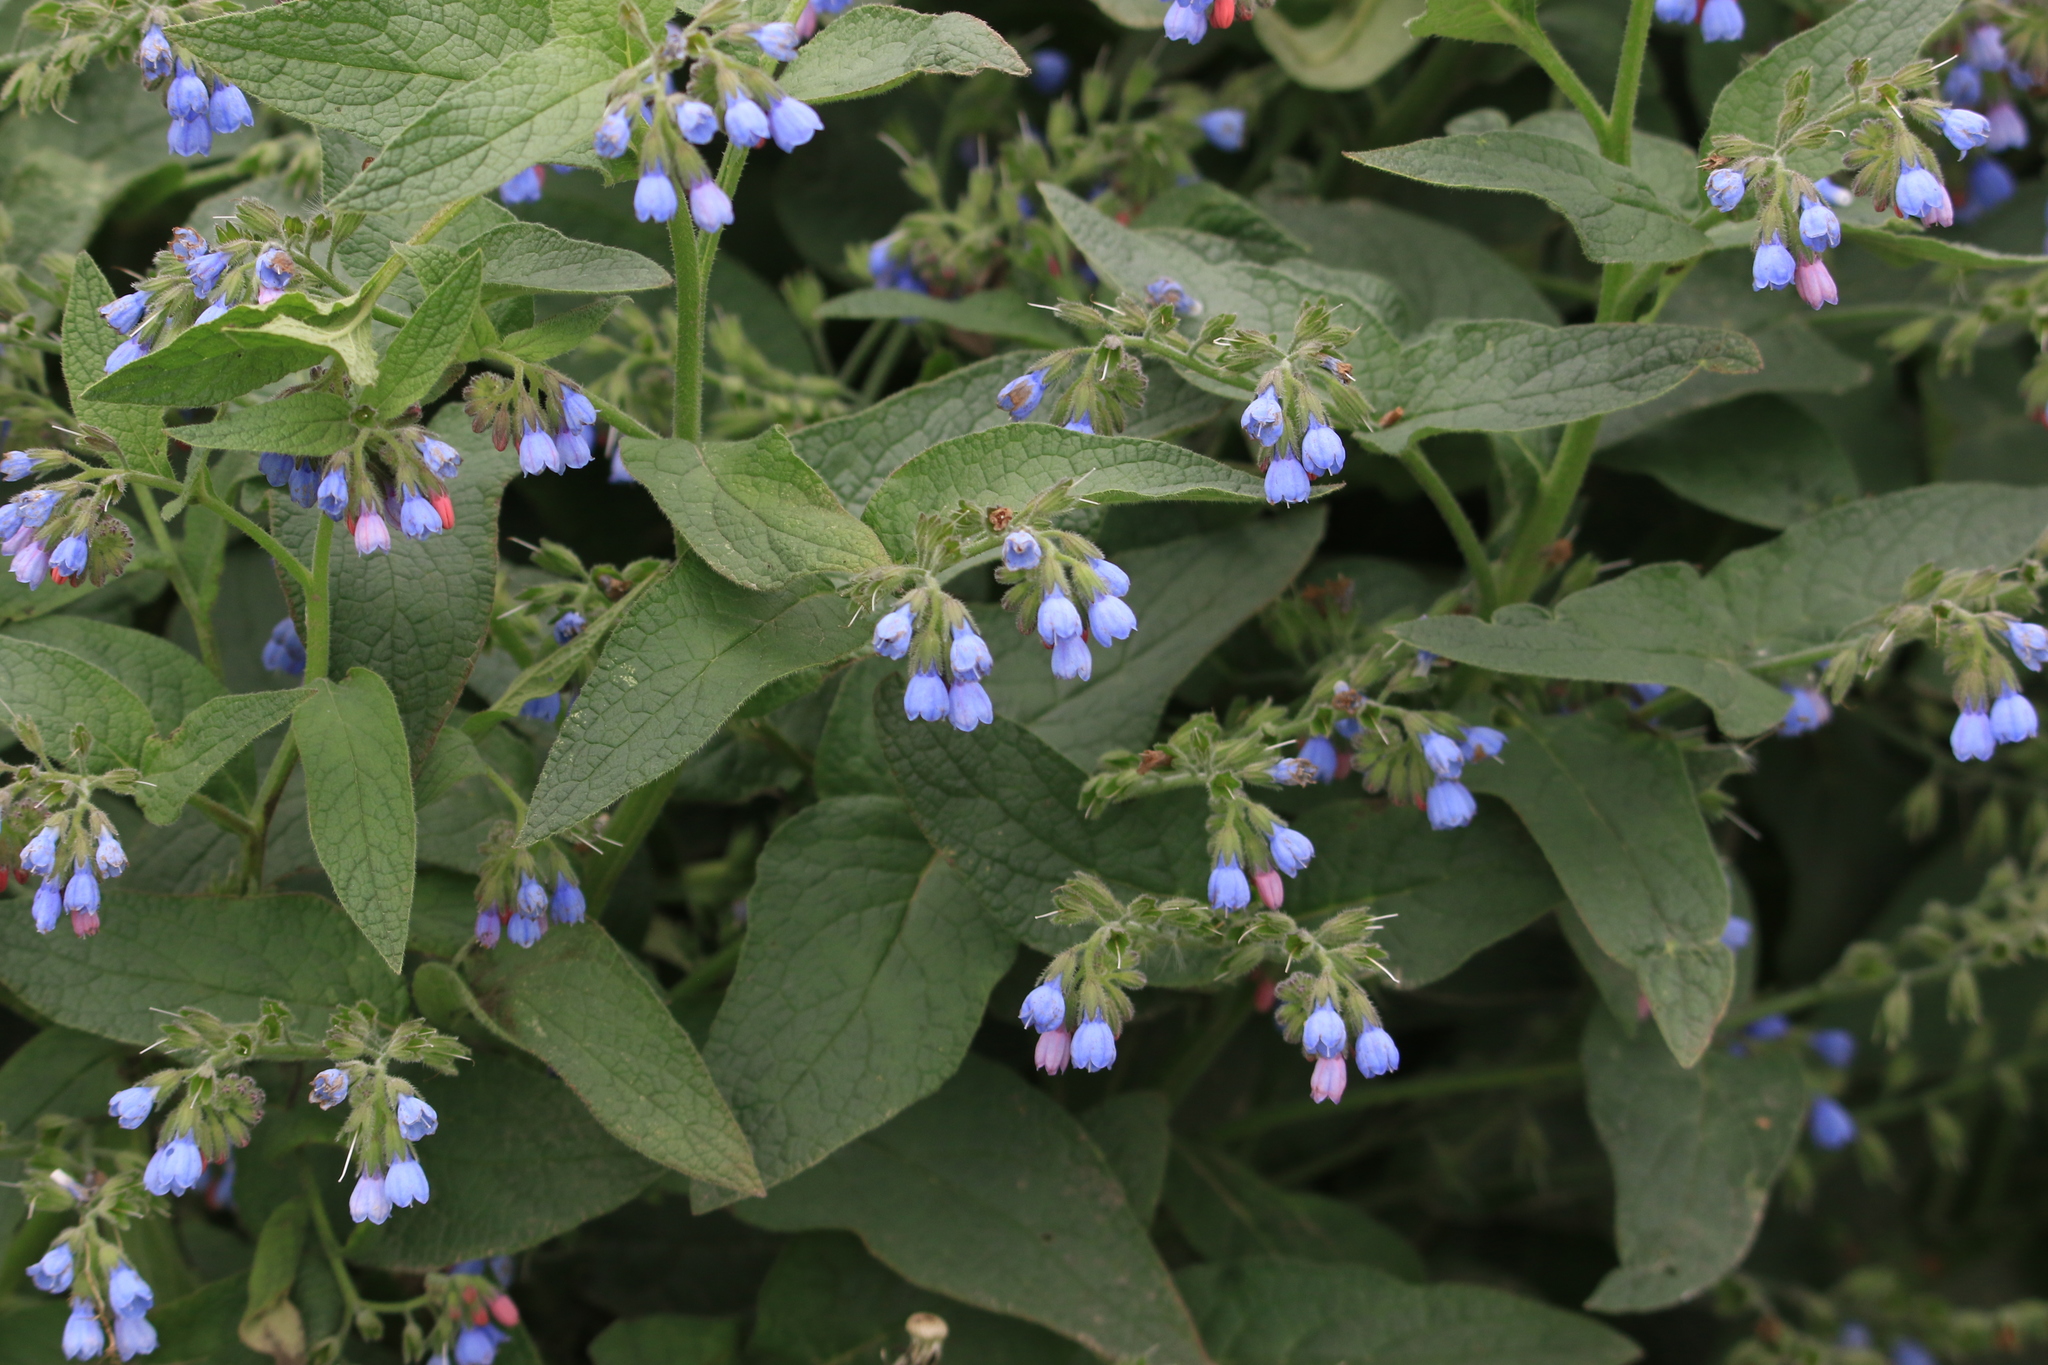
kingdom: Plantae
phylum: Tracheophyta
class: Magnoliopsida
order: Boraginales
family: Boraginaceae
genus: Symphytum
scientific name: Symphytum caucasicum
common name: Caucasian comfrey
